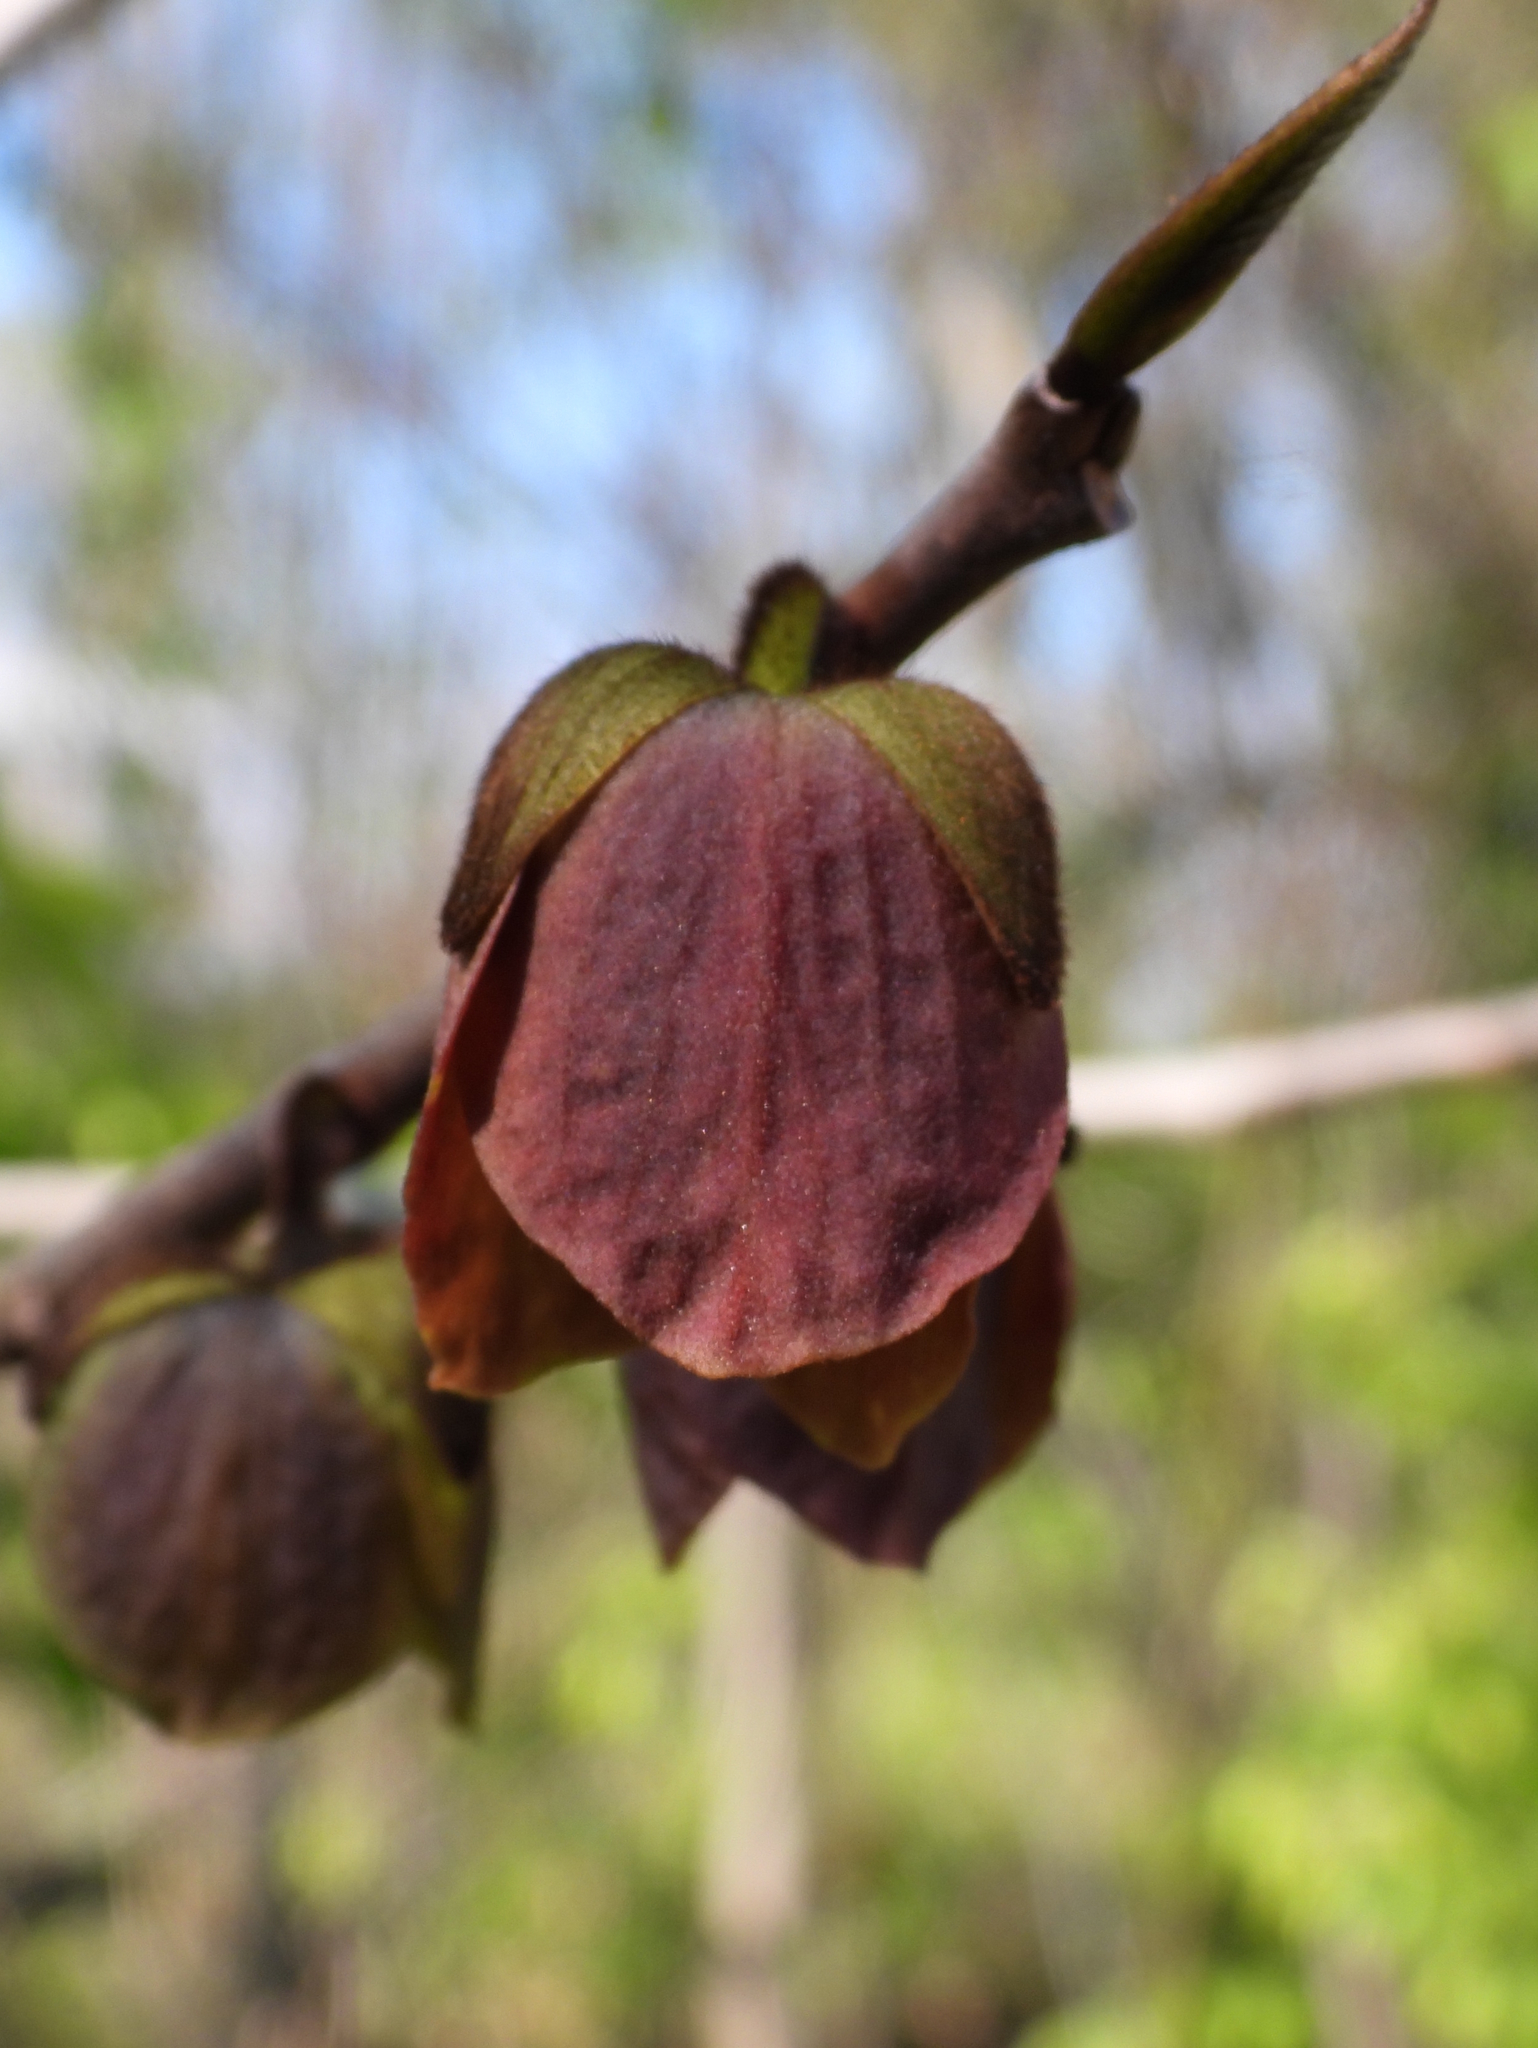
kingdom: Plantae
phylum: Tracheophyta
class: Magnoliopsida
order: Magnoliales
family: Annonaceae
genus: Asimina
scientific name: Asimina triloba
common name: Dog-banana
